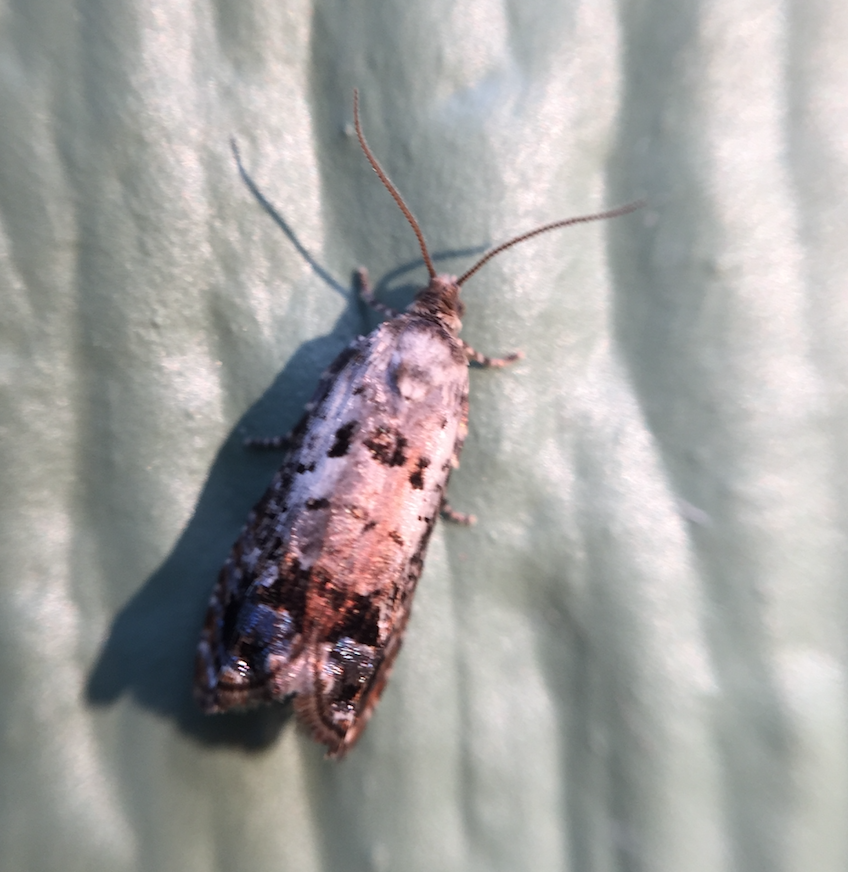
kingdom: Animalia
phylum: Arthropoda
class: Insecta
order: Lepidoptera
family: Tortricidae
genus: Epinotia
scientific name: Epinotia rectiplicana
